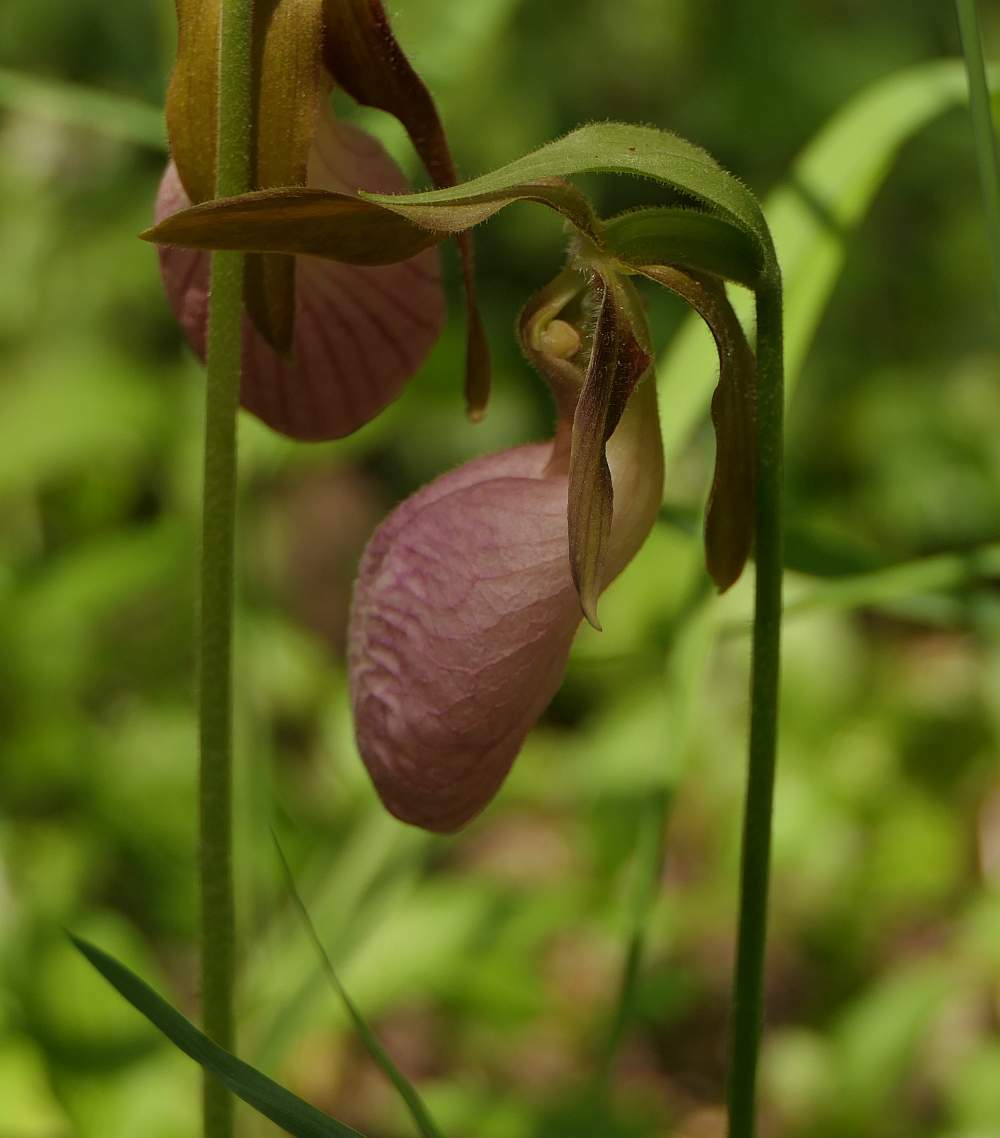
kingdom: Plantae
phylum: Tracheophyta
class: Liliopsida
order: Asparagales
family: Orchidaceae
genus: Cypripedium
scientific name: Cypripedium acaule
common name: Pink lady's-slipper
